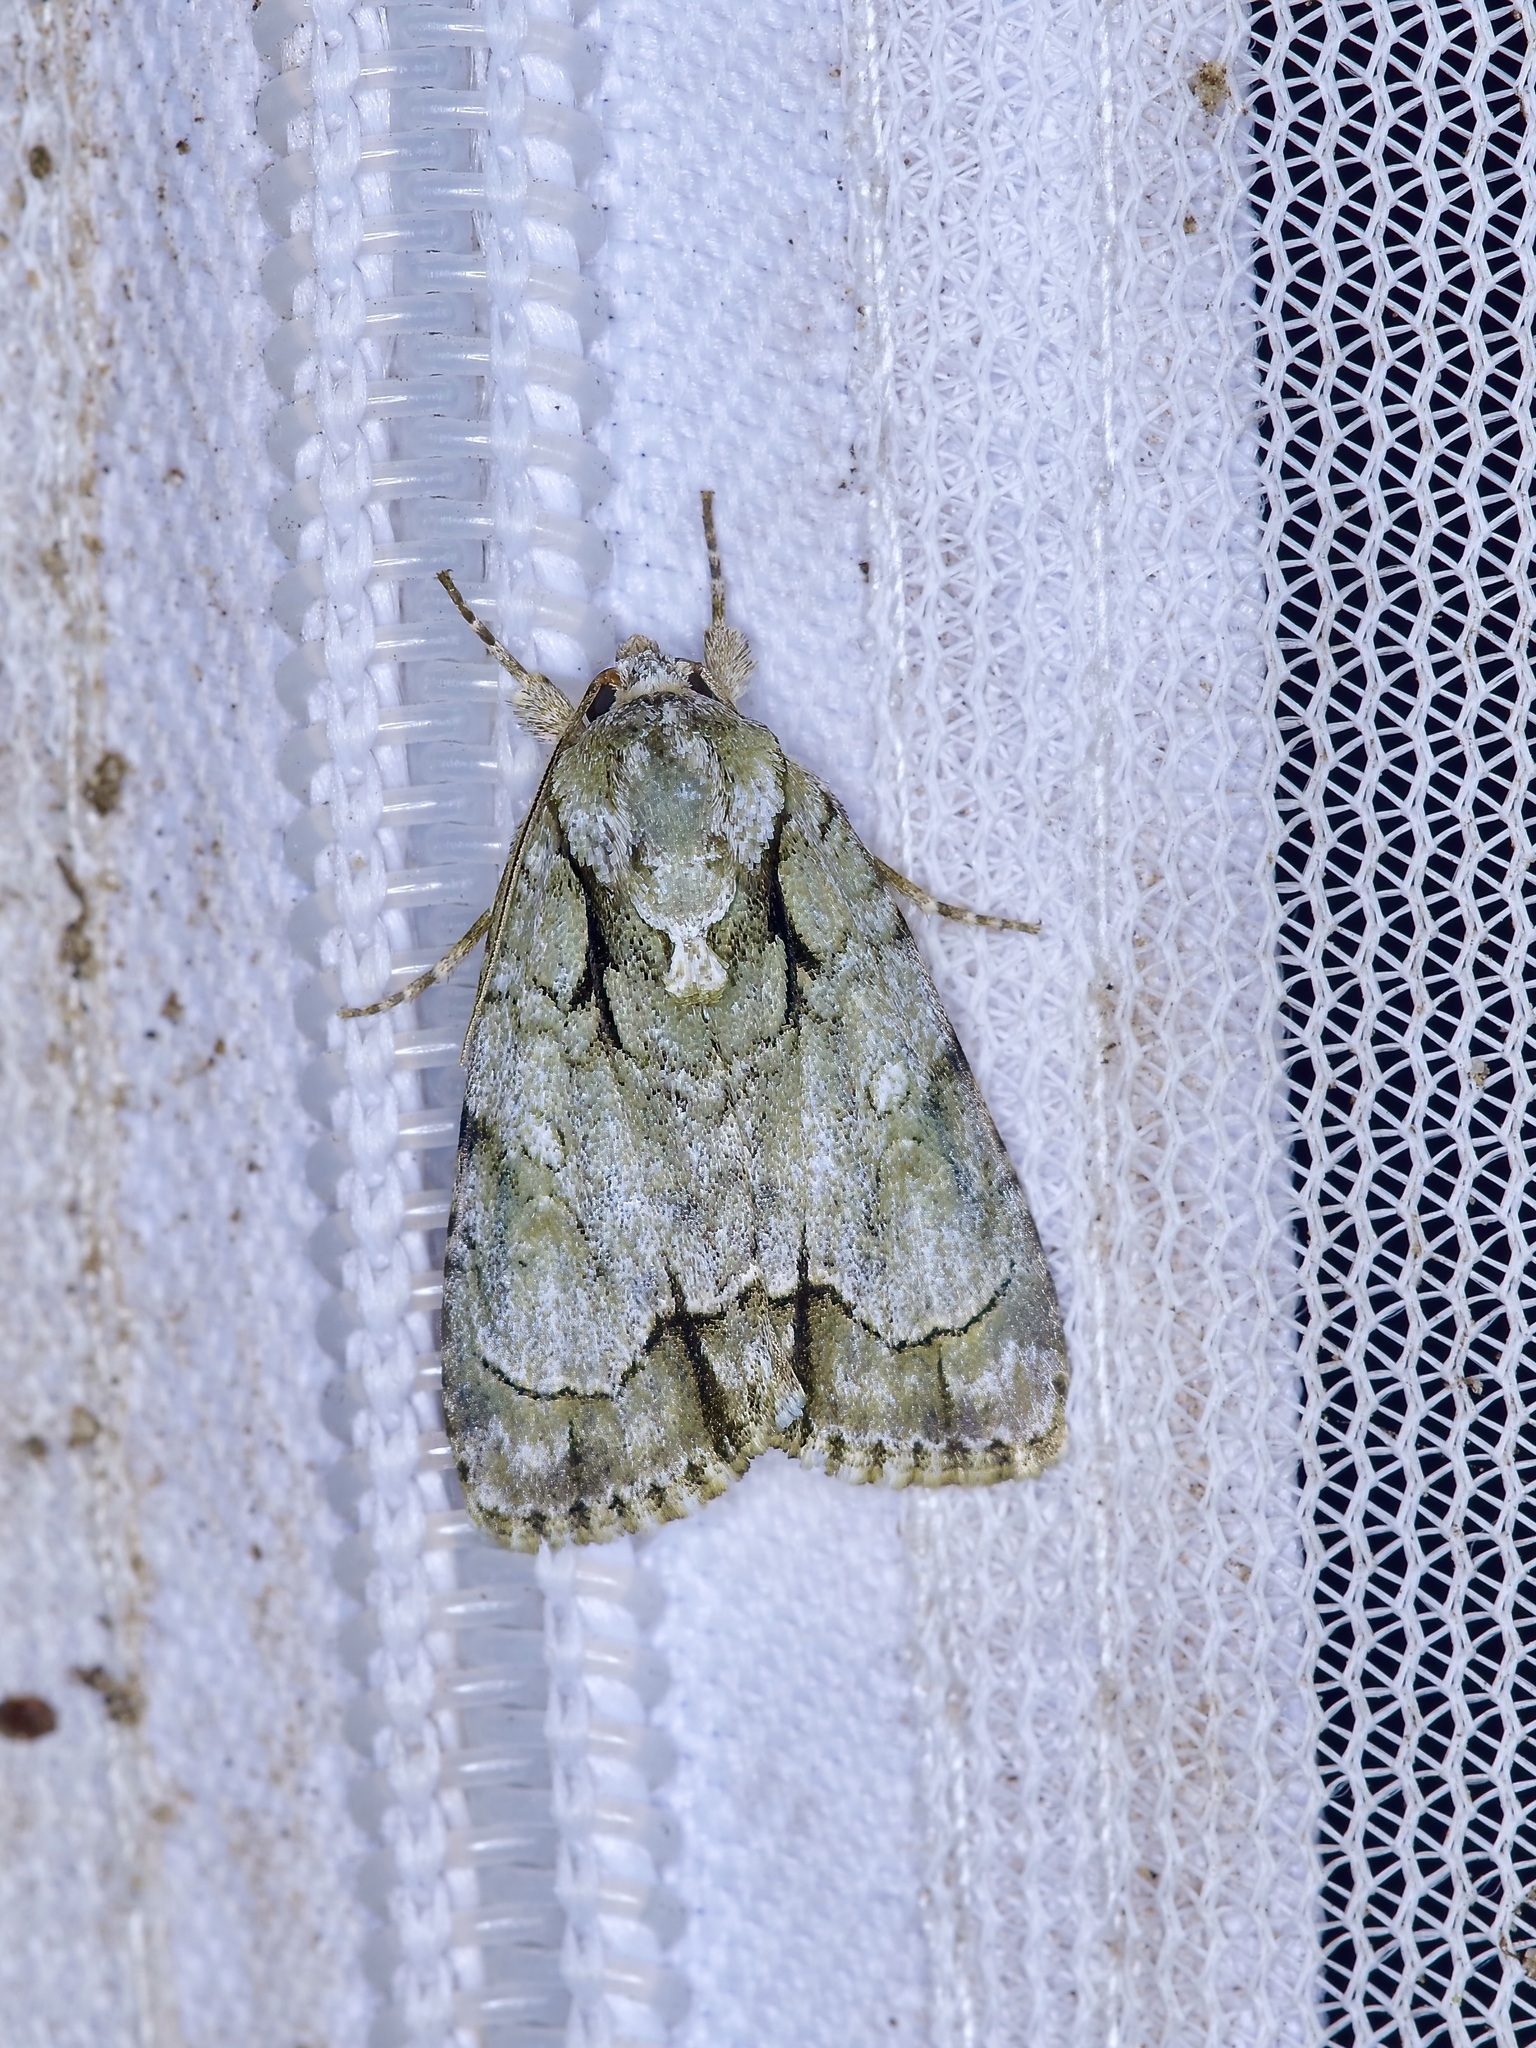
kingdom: Animalia
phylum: Arthropoda
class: Insecta
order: Lepidoptera
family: Noctuidae
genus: Acronicta
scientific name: Acronicta vinnula
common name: Delightful dagger
